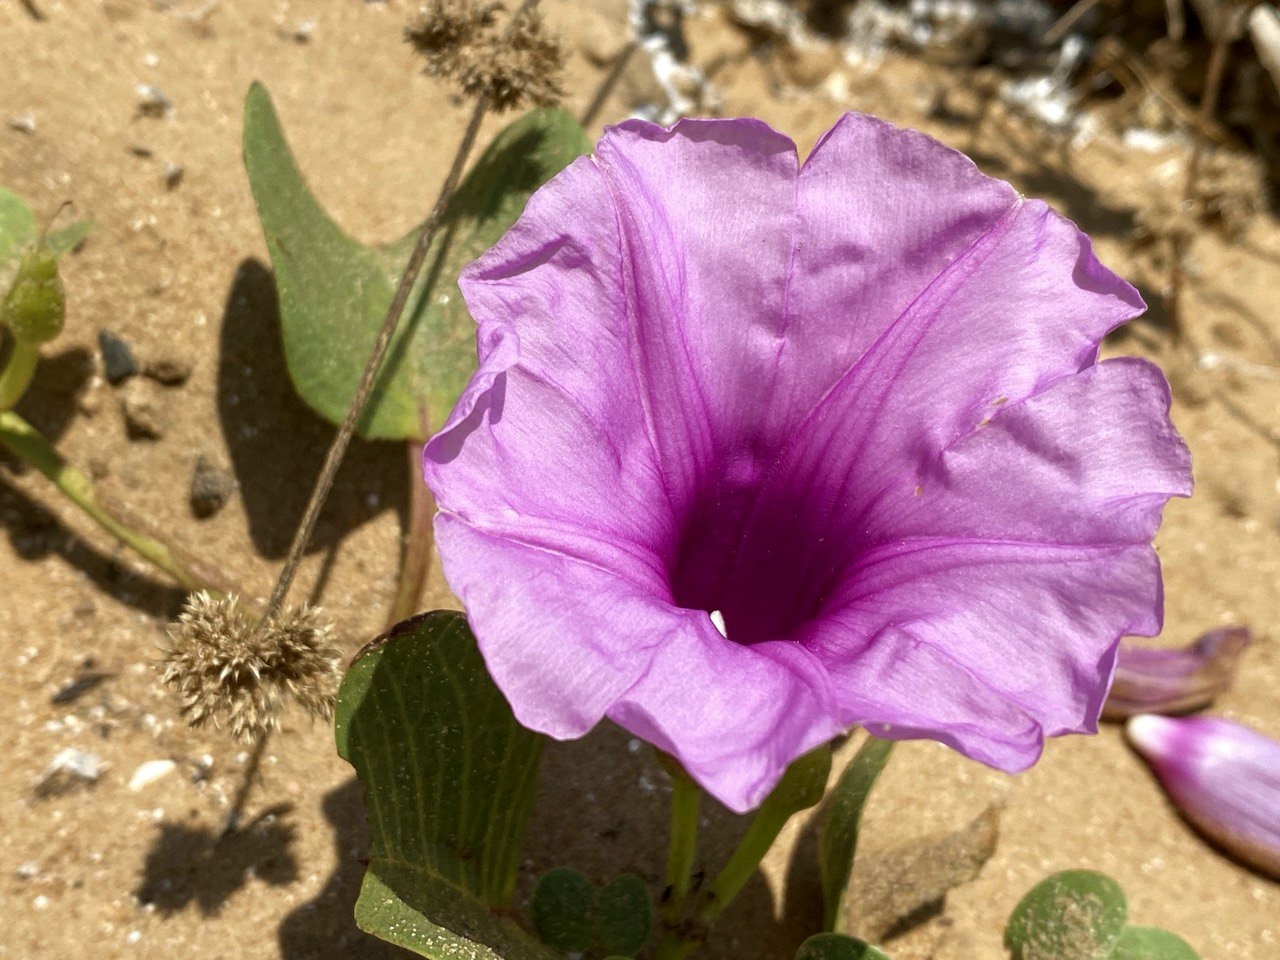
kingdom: Plantae
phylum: Tracheophyta
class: Magnoliopsida
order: Solanales
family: Convolvulaceae
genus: Ipomoea
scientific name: Ipomoea pes-caprae
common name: Beach morning glory
